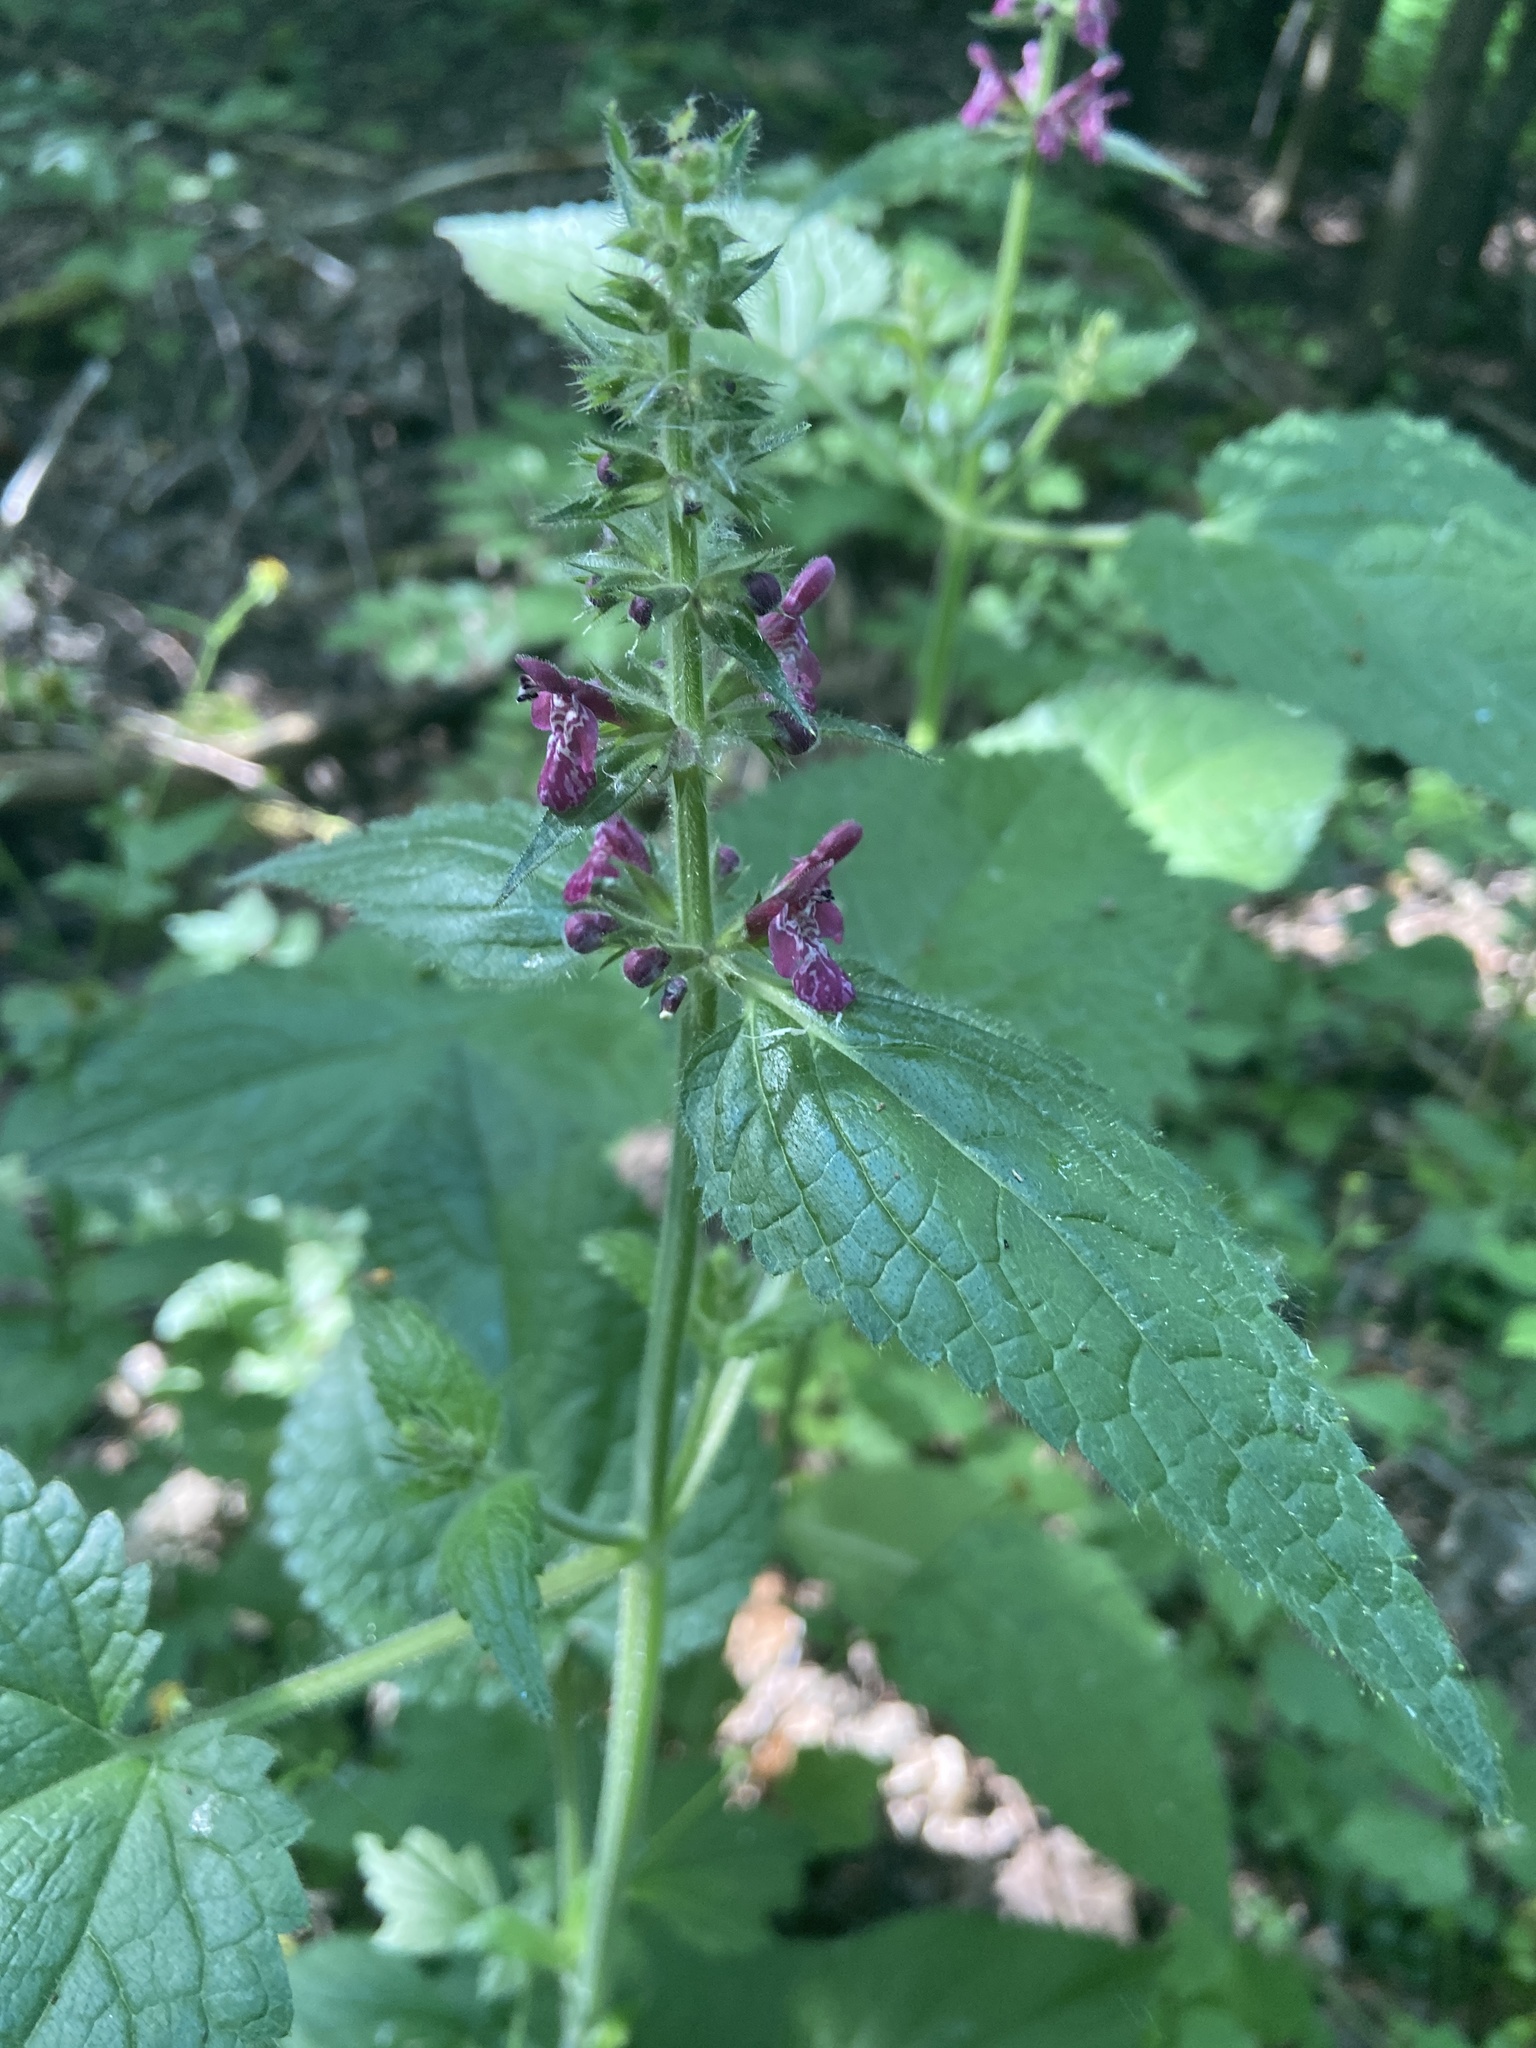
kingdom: Plantae
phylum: Tracheophyta
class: Magnoliopsida
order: Lamiales
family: Lamiaceae
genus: Stachys
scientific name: Stachys sylvatica
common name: Hedge woundwort
